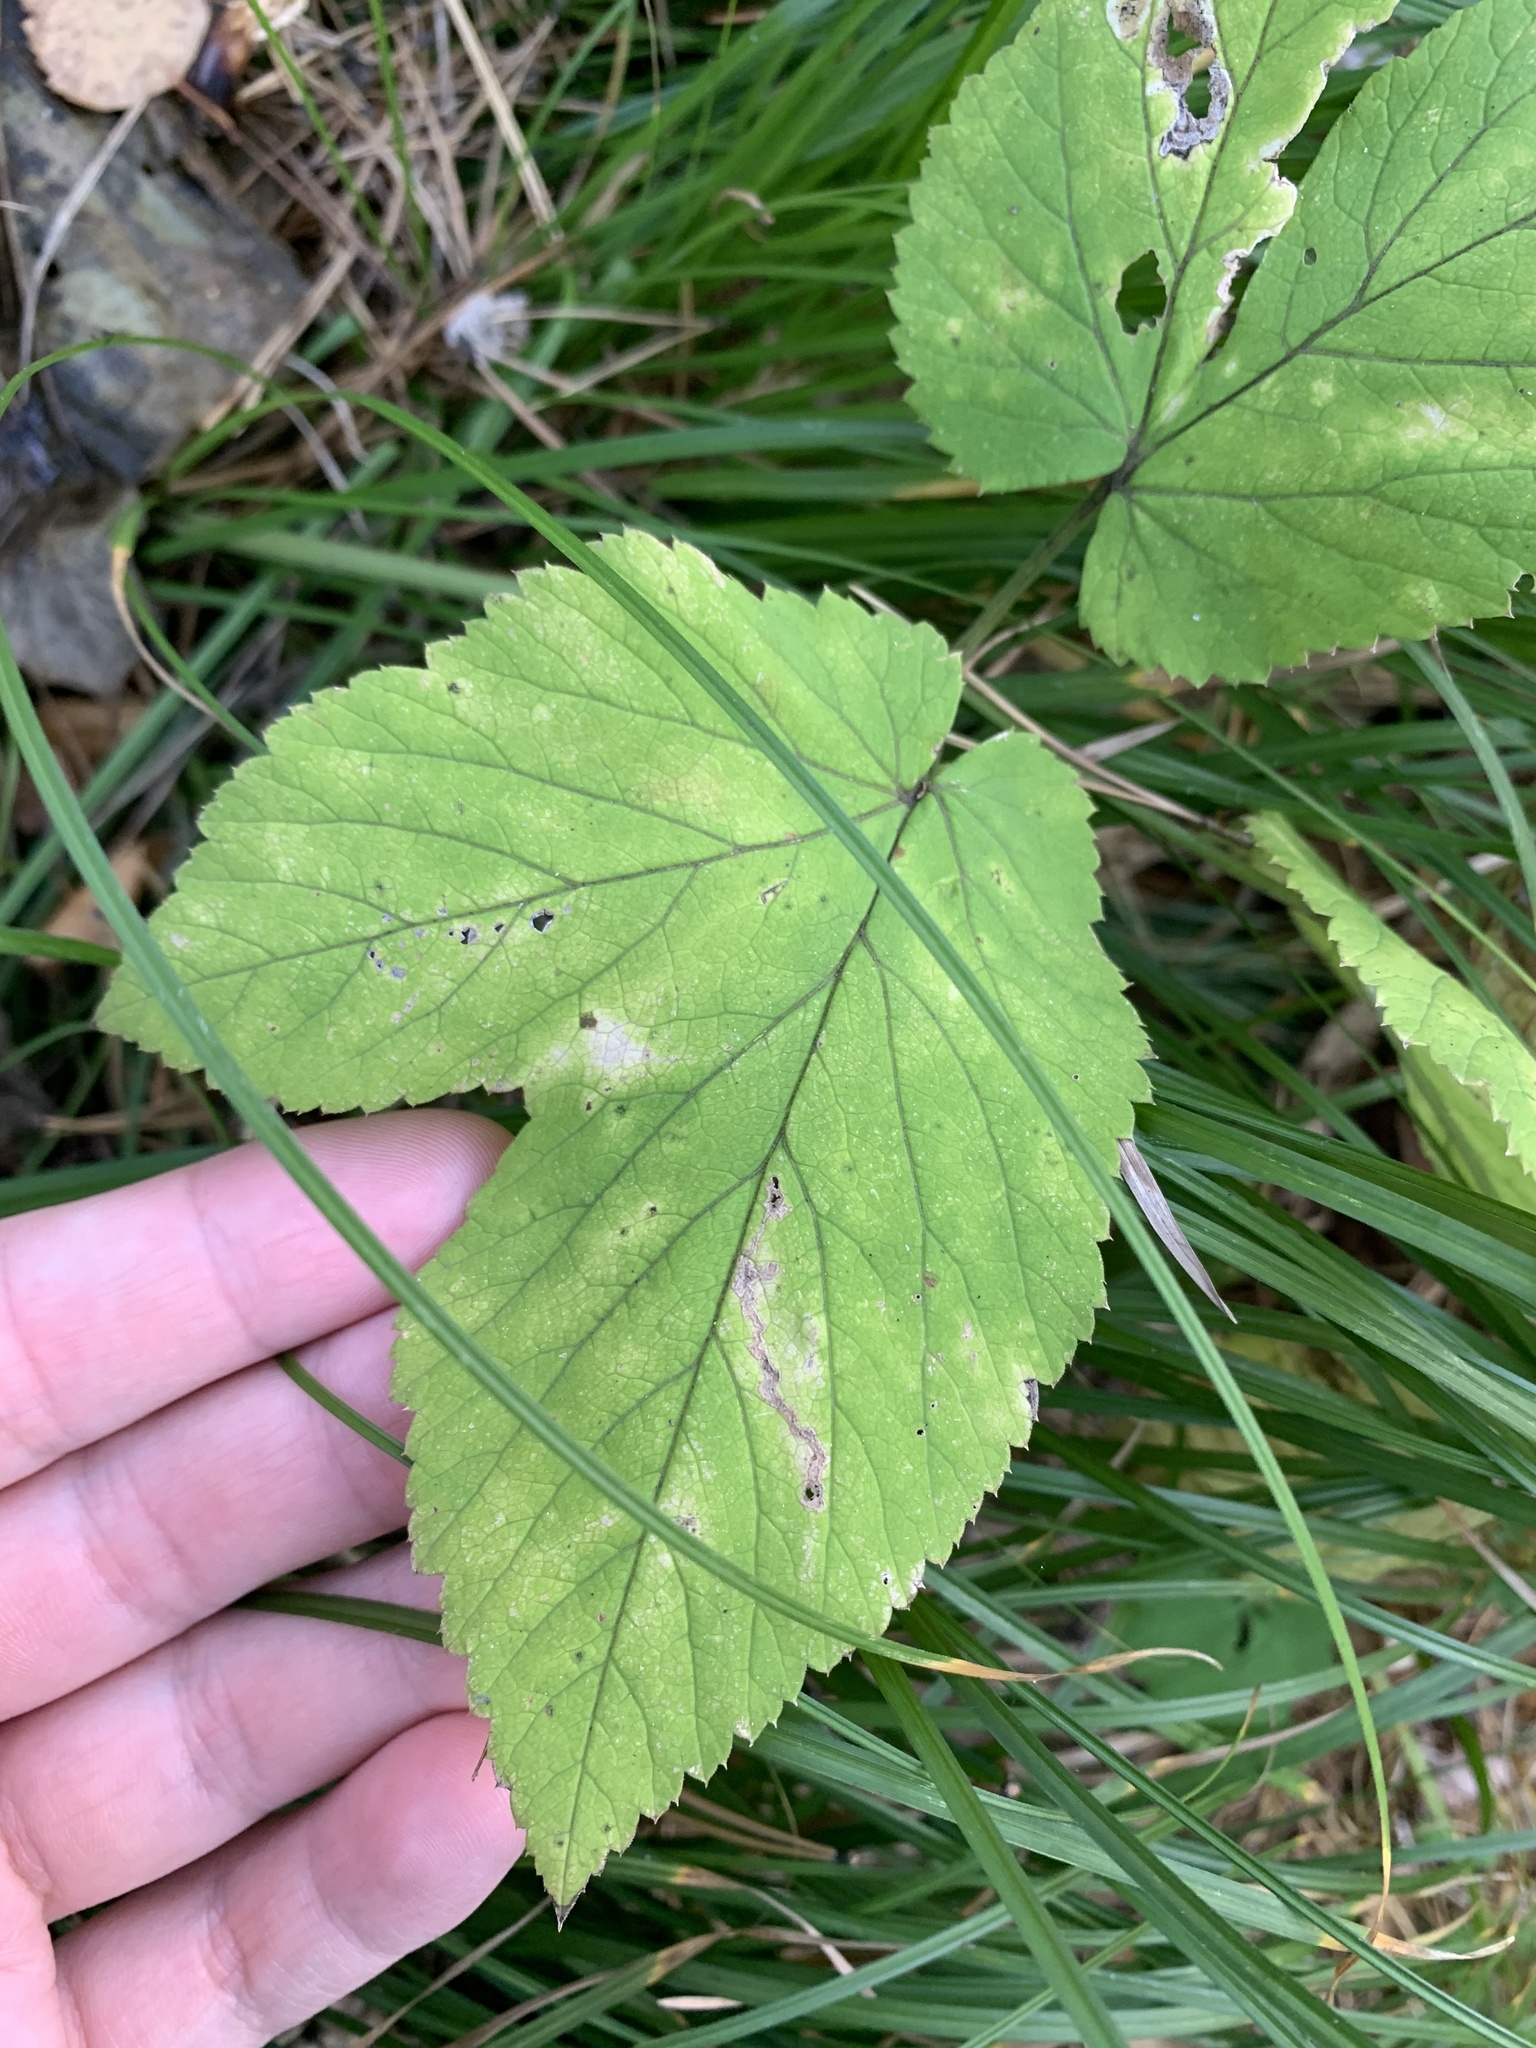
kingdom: Plantae
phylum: Tracheophyta
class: Magnoliopsida
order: Apiales
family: Apiaceae
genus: Aegopodium
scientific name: Aegopodium podagraria
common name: Ground-elder
